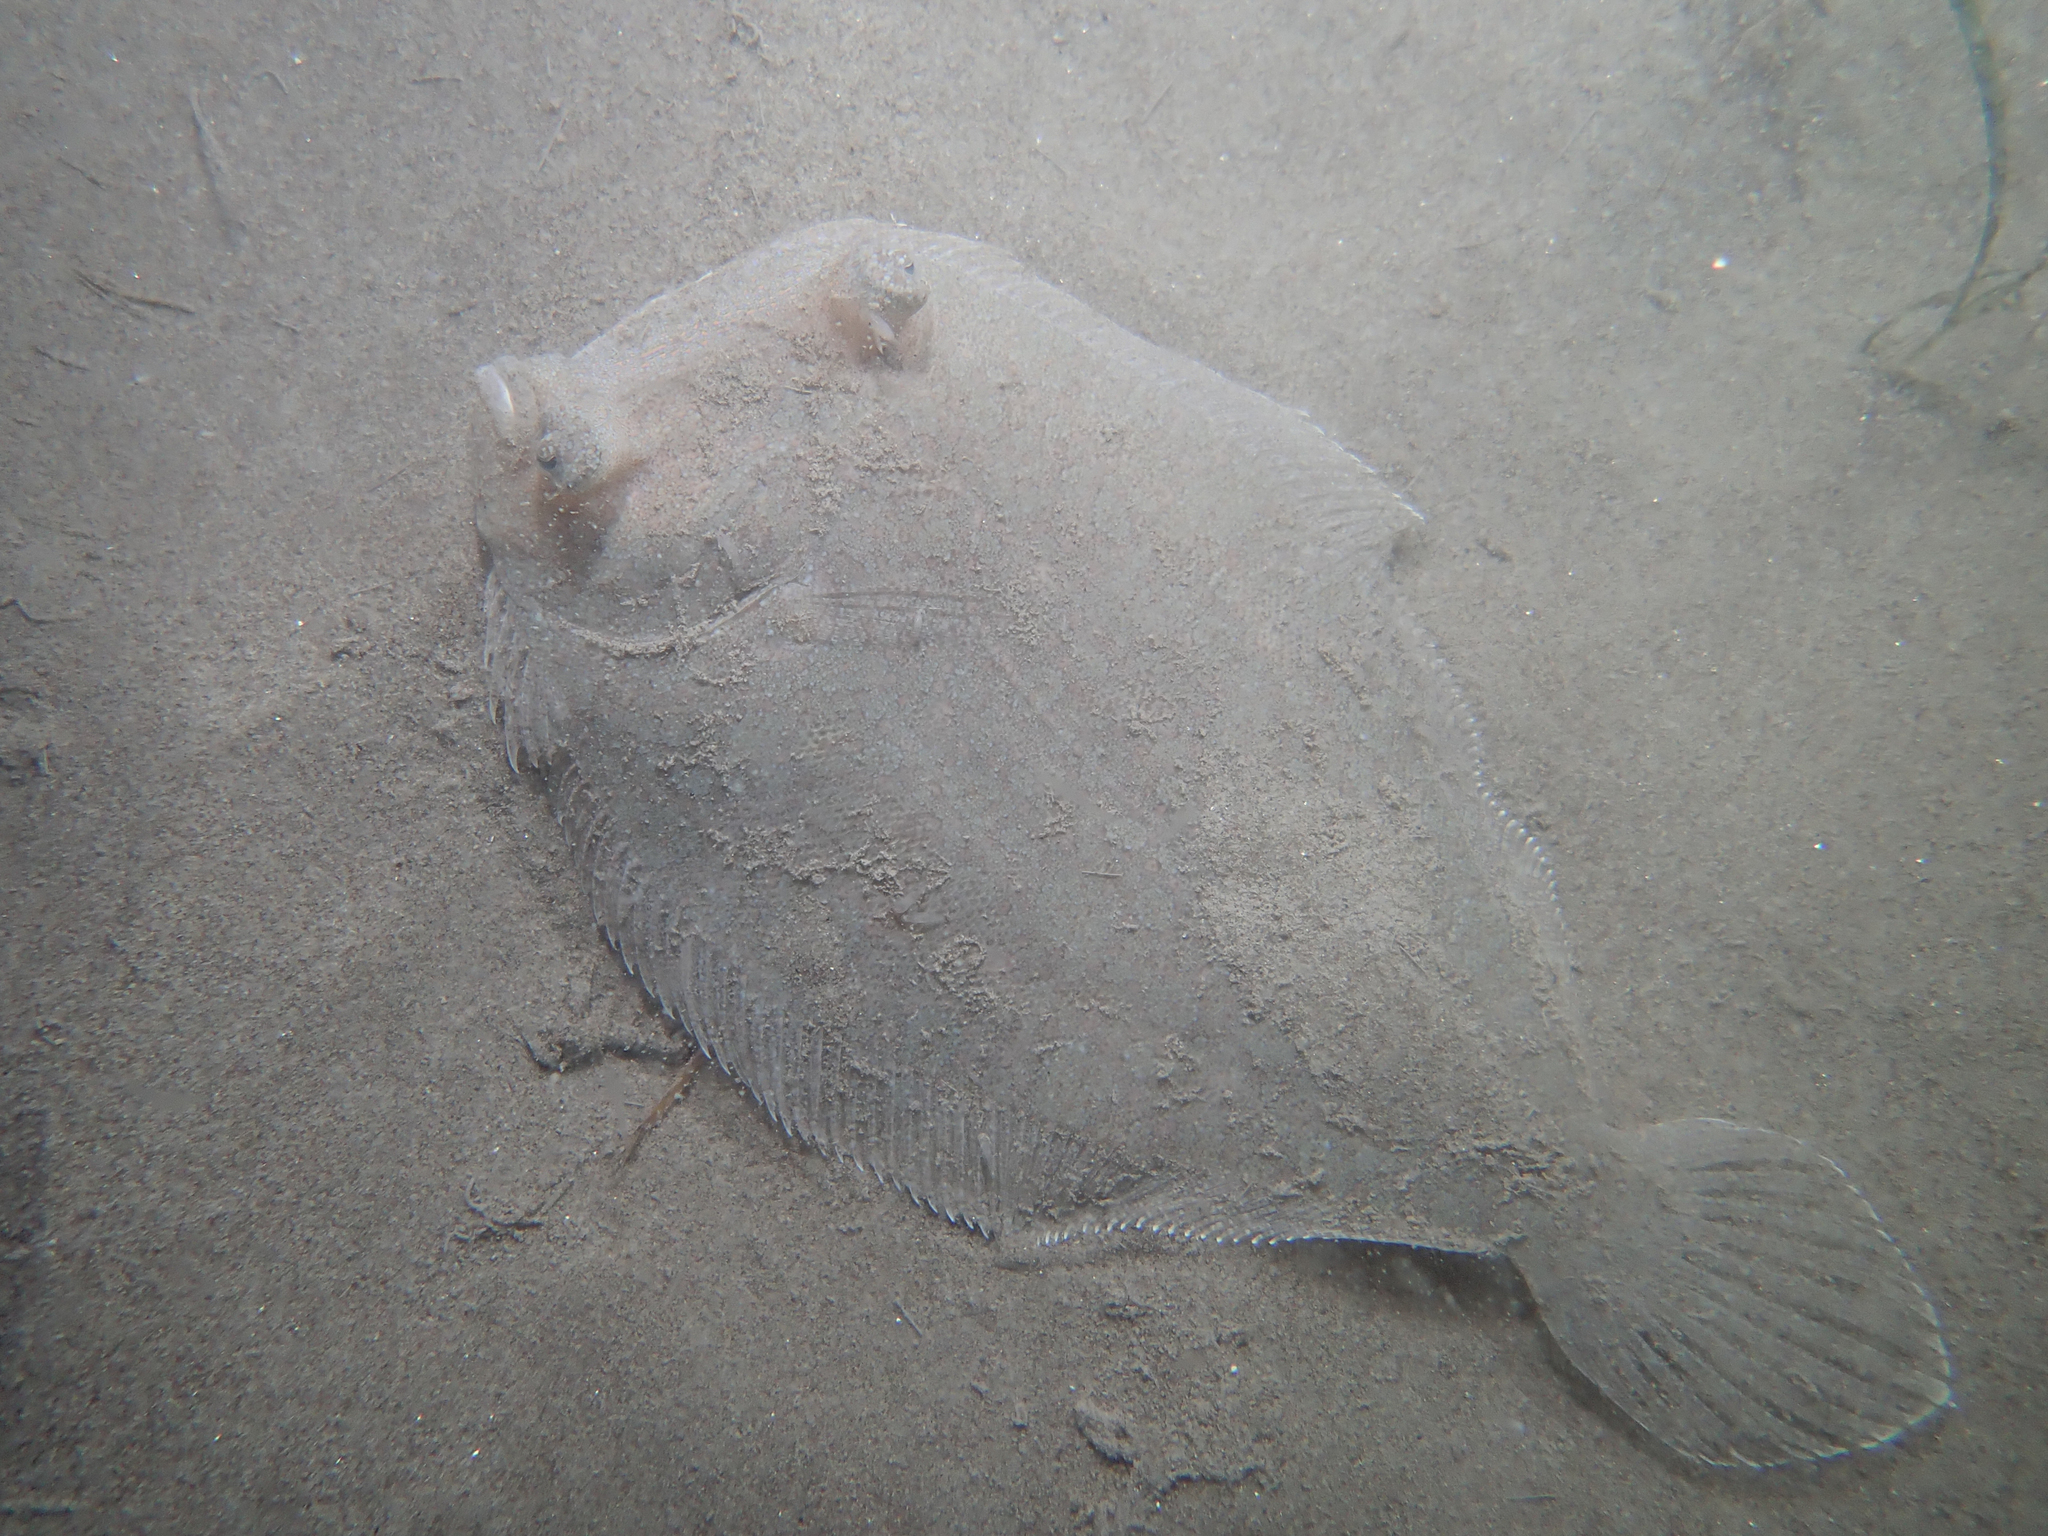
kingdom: Animalia
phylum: Chordata
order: Pleuronectiformes
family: Bothidae
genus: Bothus
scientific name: Bothus podas
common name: Wide-eyed flounder
